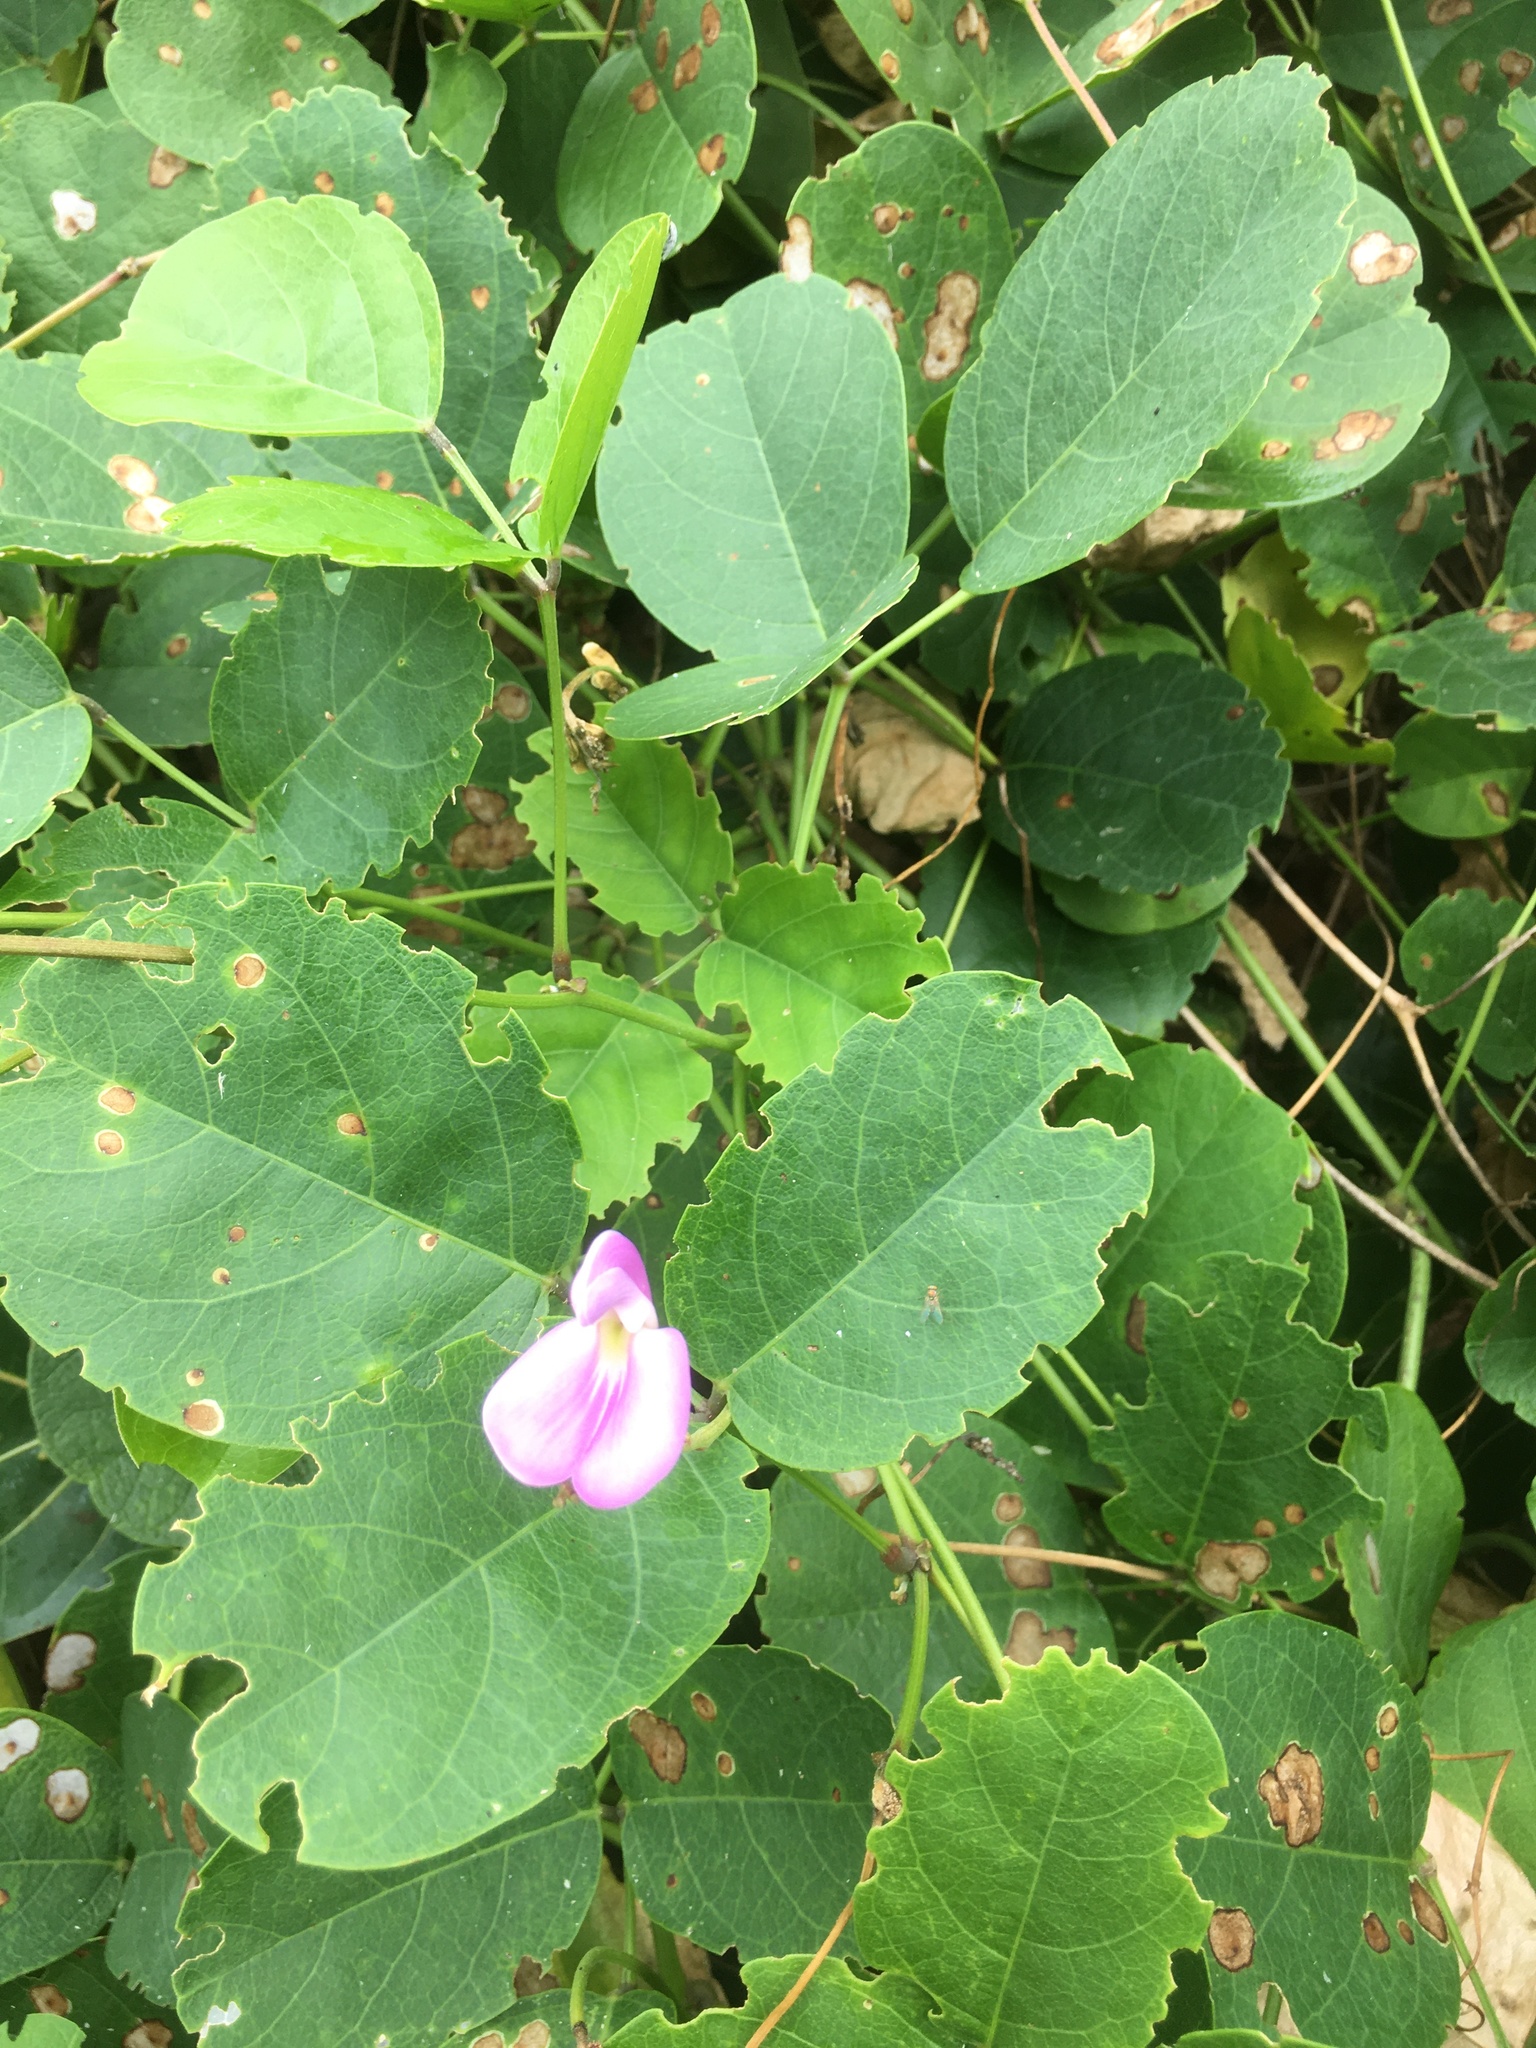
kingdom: Plantae
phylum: Tracheophyta
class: Magnoliopsida
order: Fabales
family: Fabaceae
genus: Canavalia
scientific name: Canavalia rosea
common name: Beach-bean
